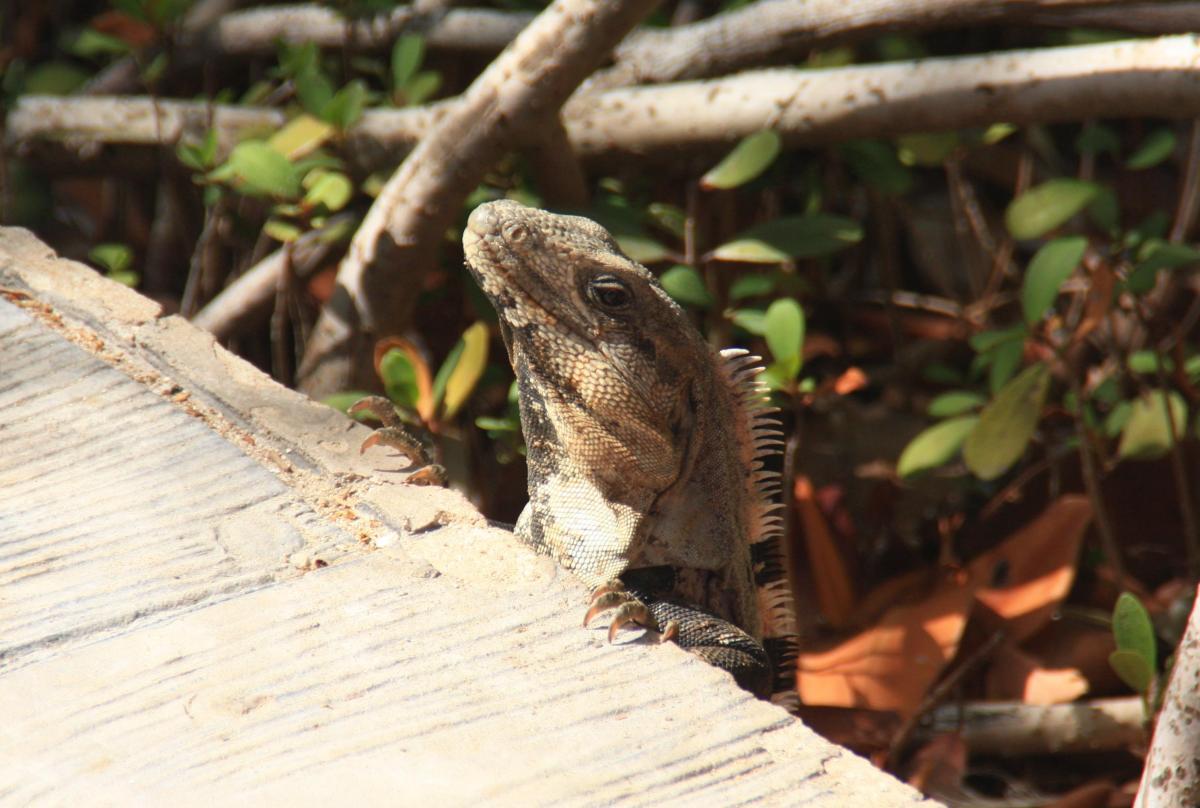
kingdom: Animalia
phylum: Chordata
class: Squamata
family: Iguanidae
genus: Ctenosaura
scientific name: Ctenosaura similis
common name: Black spiny-tailed iguana
